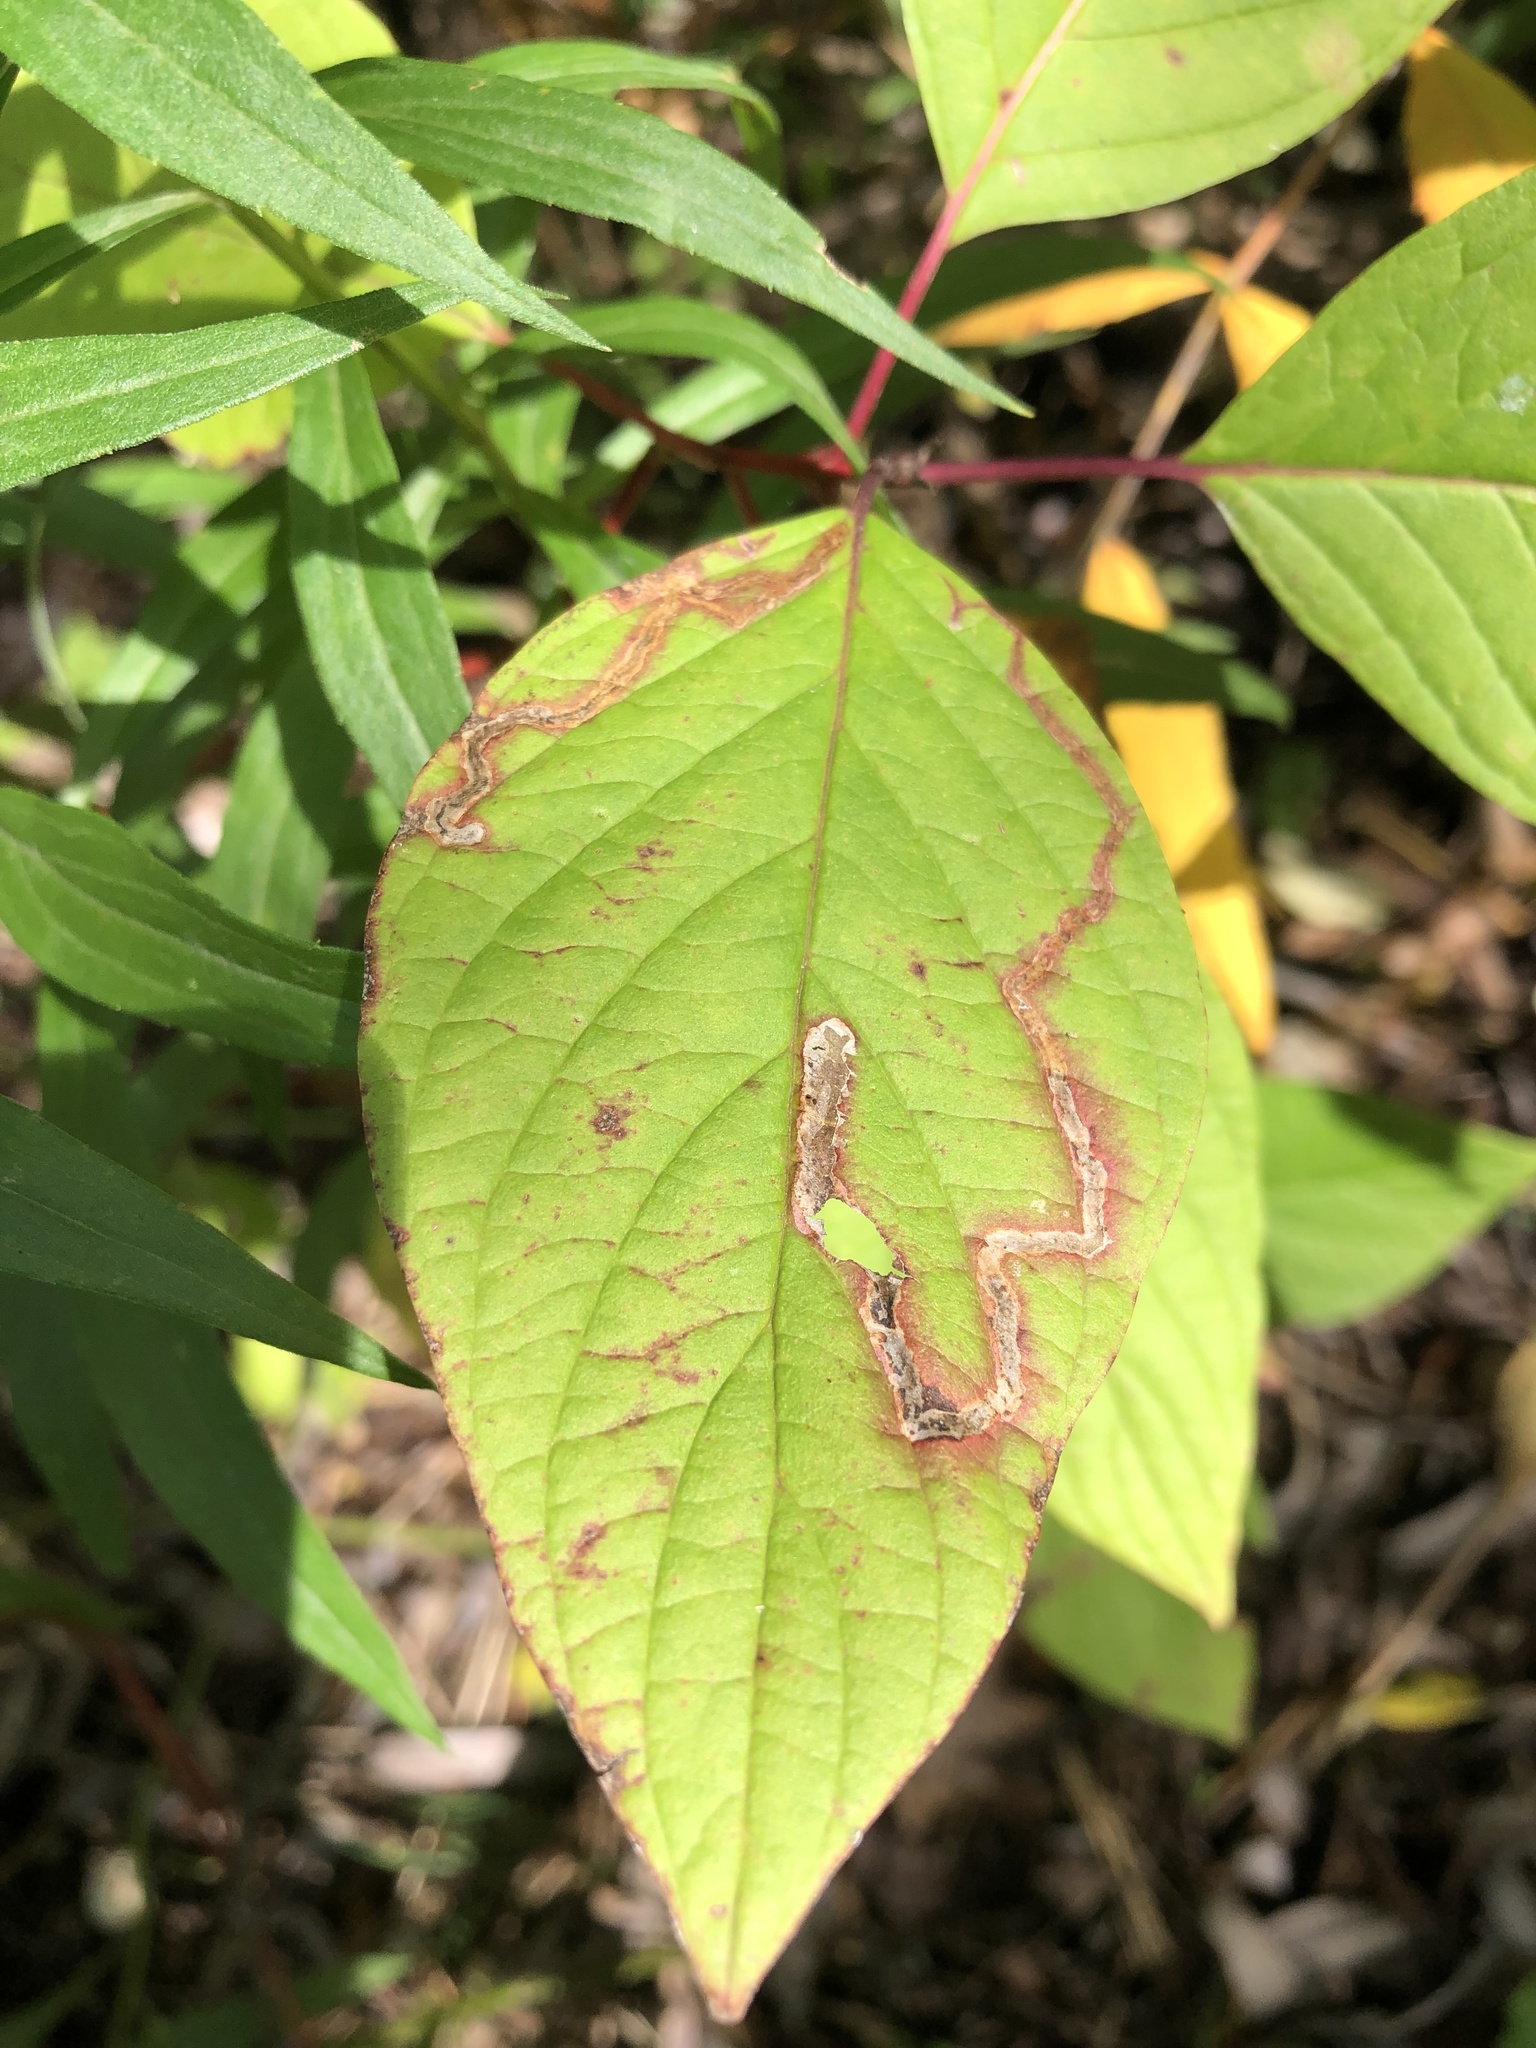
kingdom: Animalia
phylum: Arthropoda
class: Insecta
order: Diptera
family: Agromyzidae
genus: Phytomyza
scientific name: Phytomyza agromyzina
